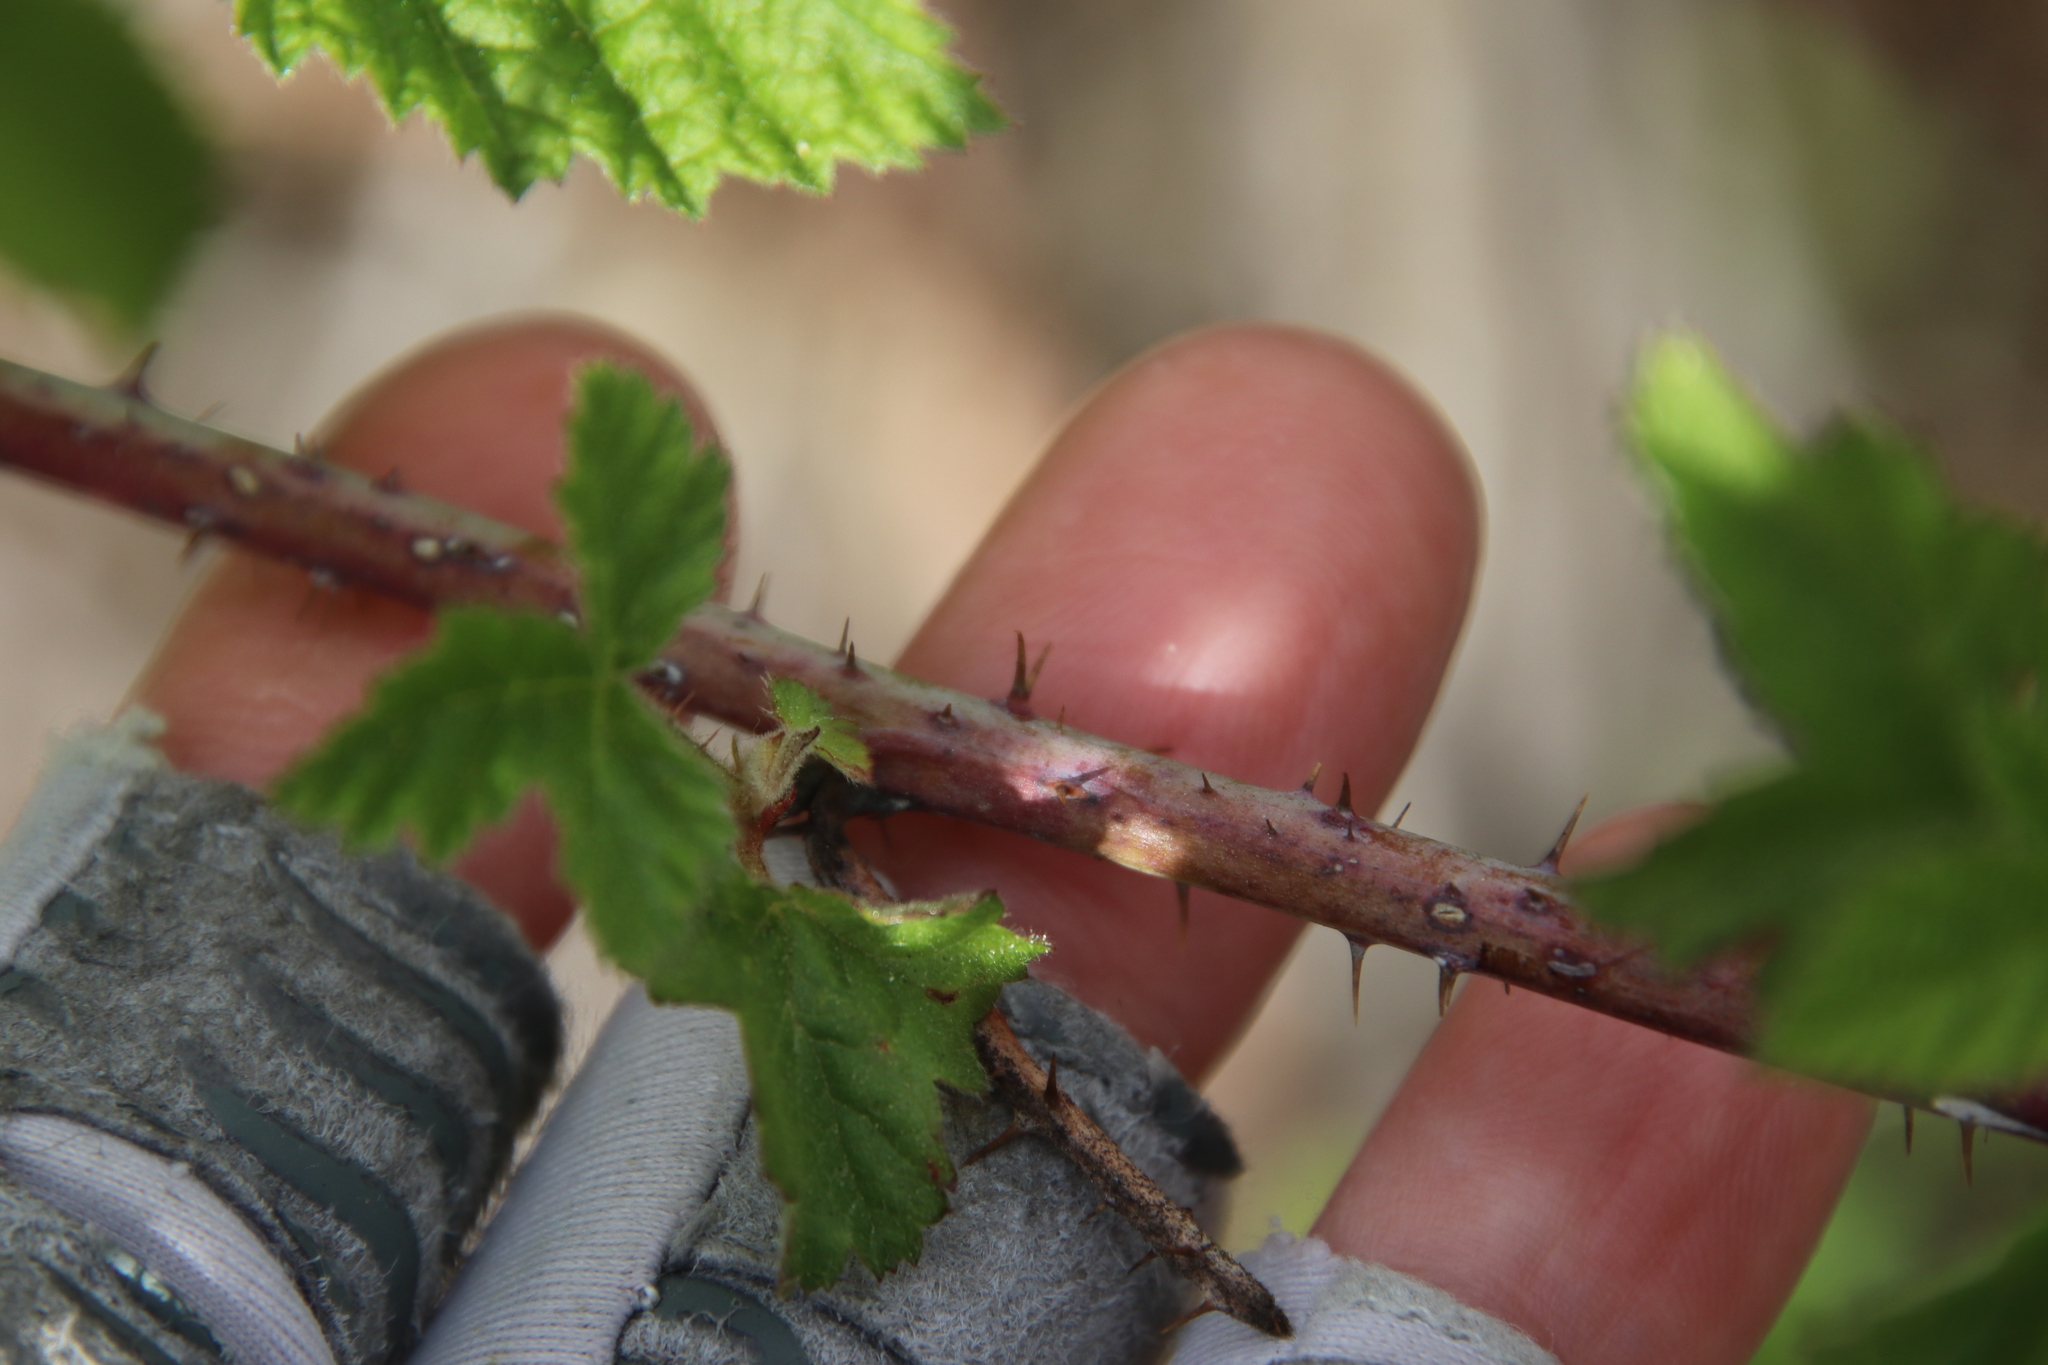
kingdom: Plantae
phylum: Tracheophyta
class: Magnoliopsida
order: Rosales
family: Rosaceae
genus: Rubus
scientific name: Rubus ursinus
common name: Pacific blackberry
